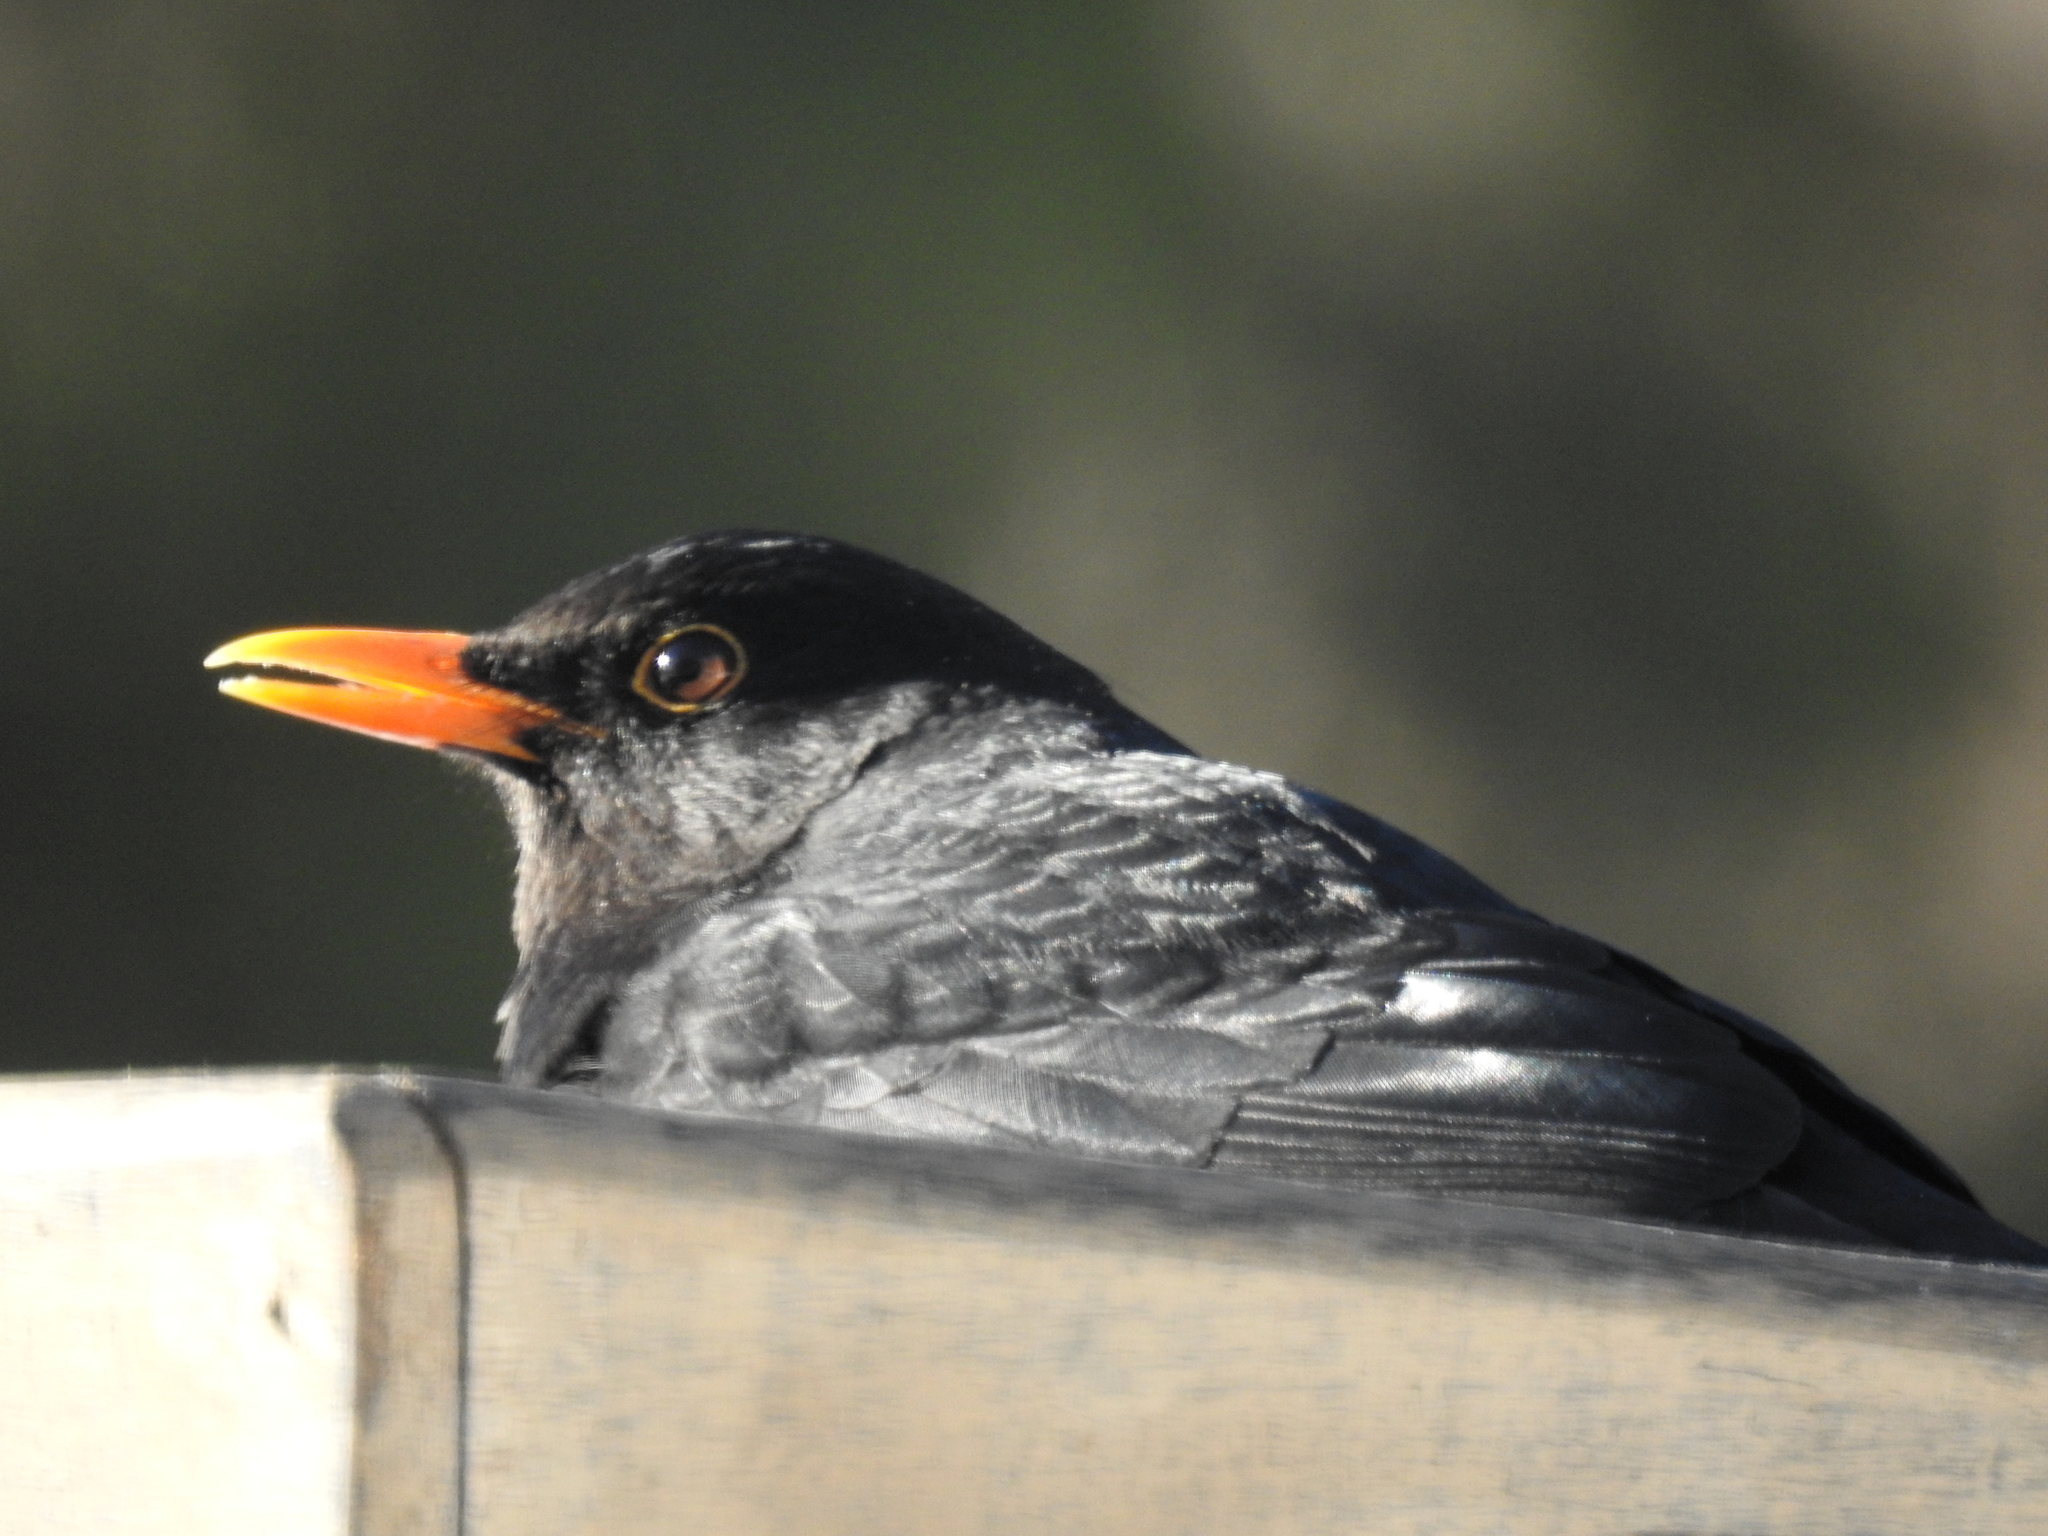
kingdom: Animalia
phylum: Chordata
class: Aves
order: Passeriformes
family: Turdidae
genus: Turdus
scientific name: Turdus merula
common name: Common blackbird
